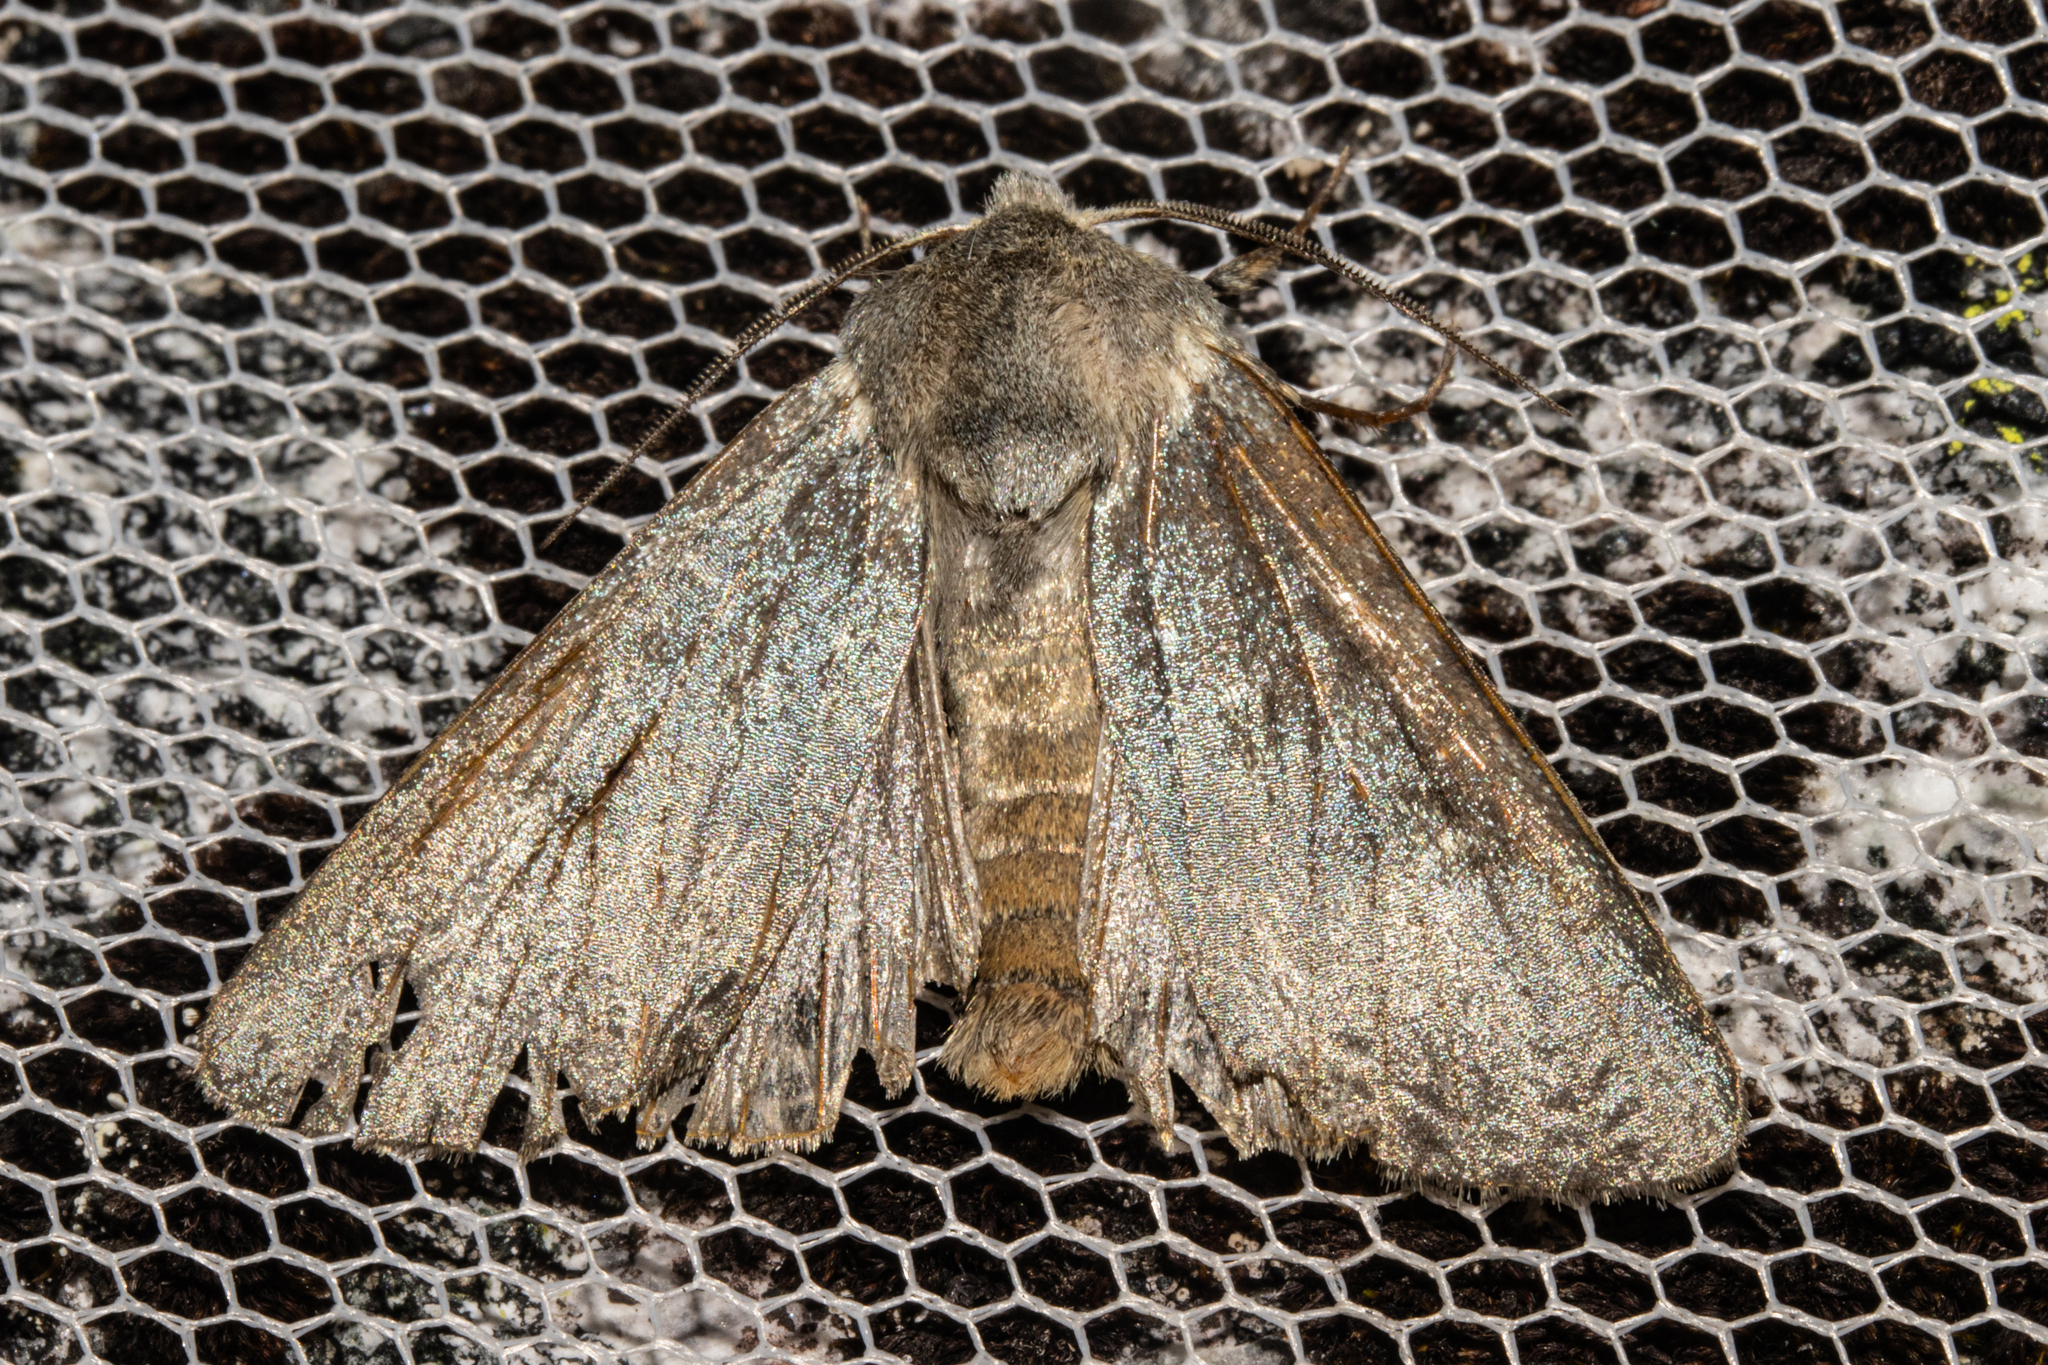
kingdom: Animalia
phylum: Arthropoda
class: Insecta
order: Lepidoptera
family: Noctuidae
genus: Ichneutica
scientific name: Ichneutica
